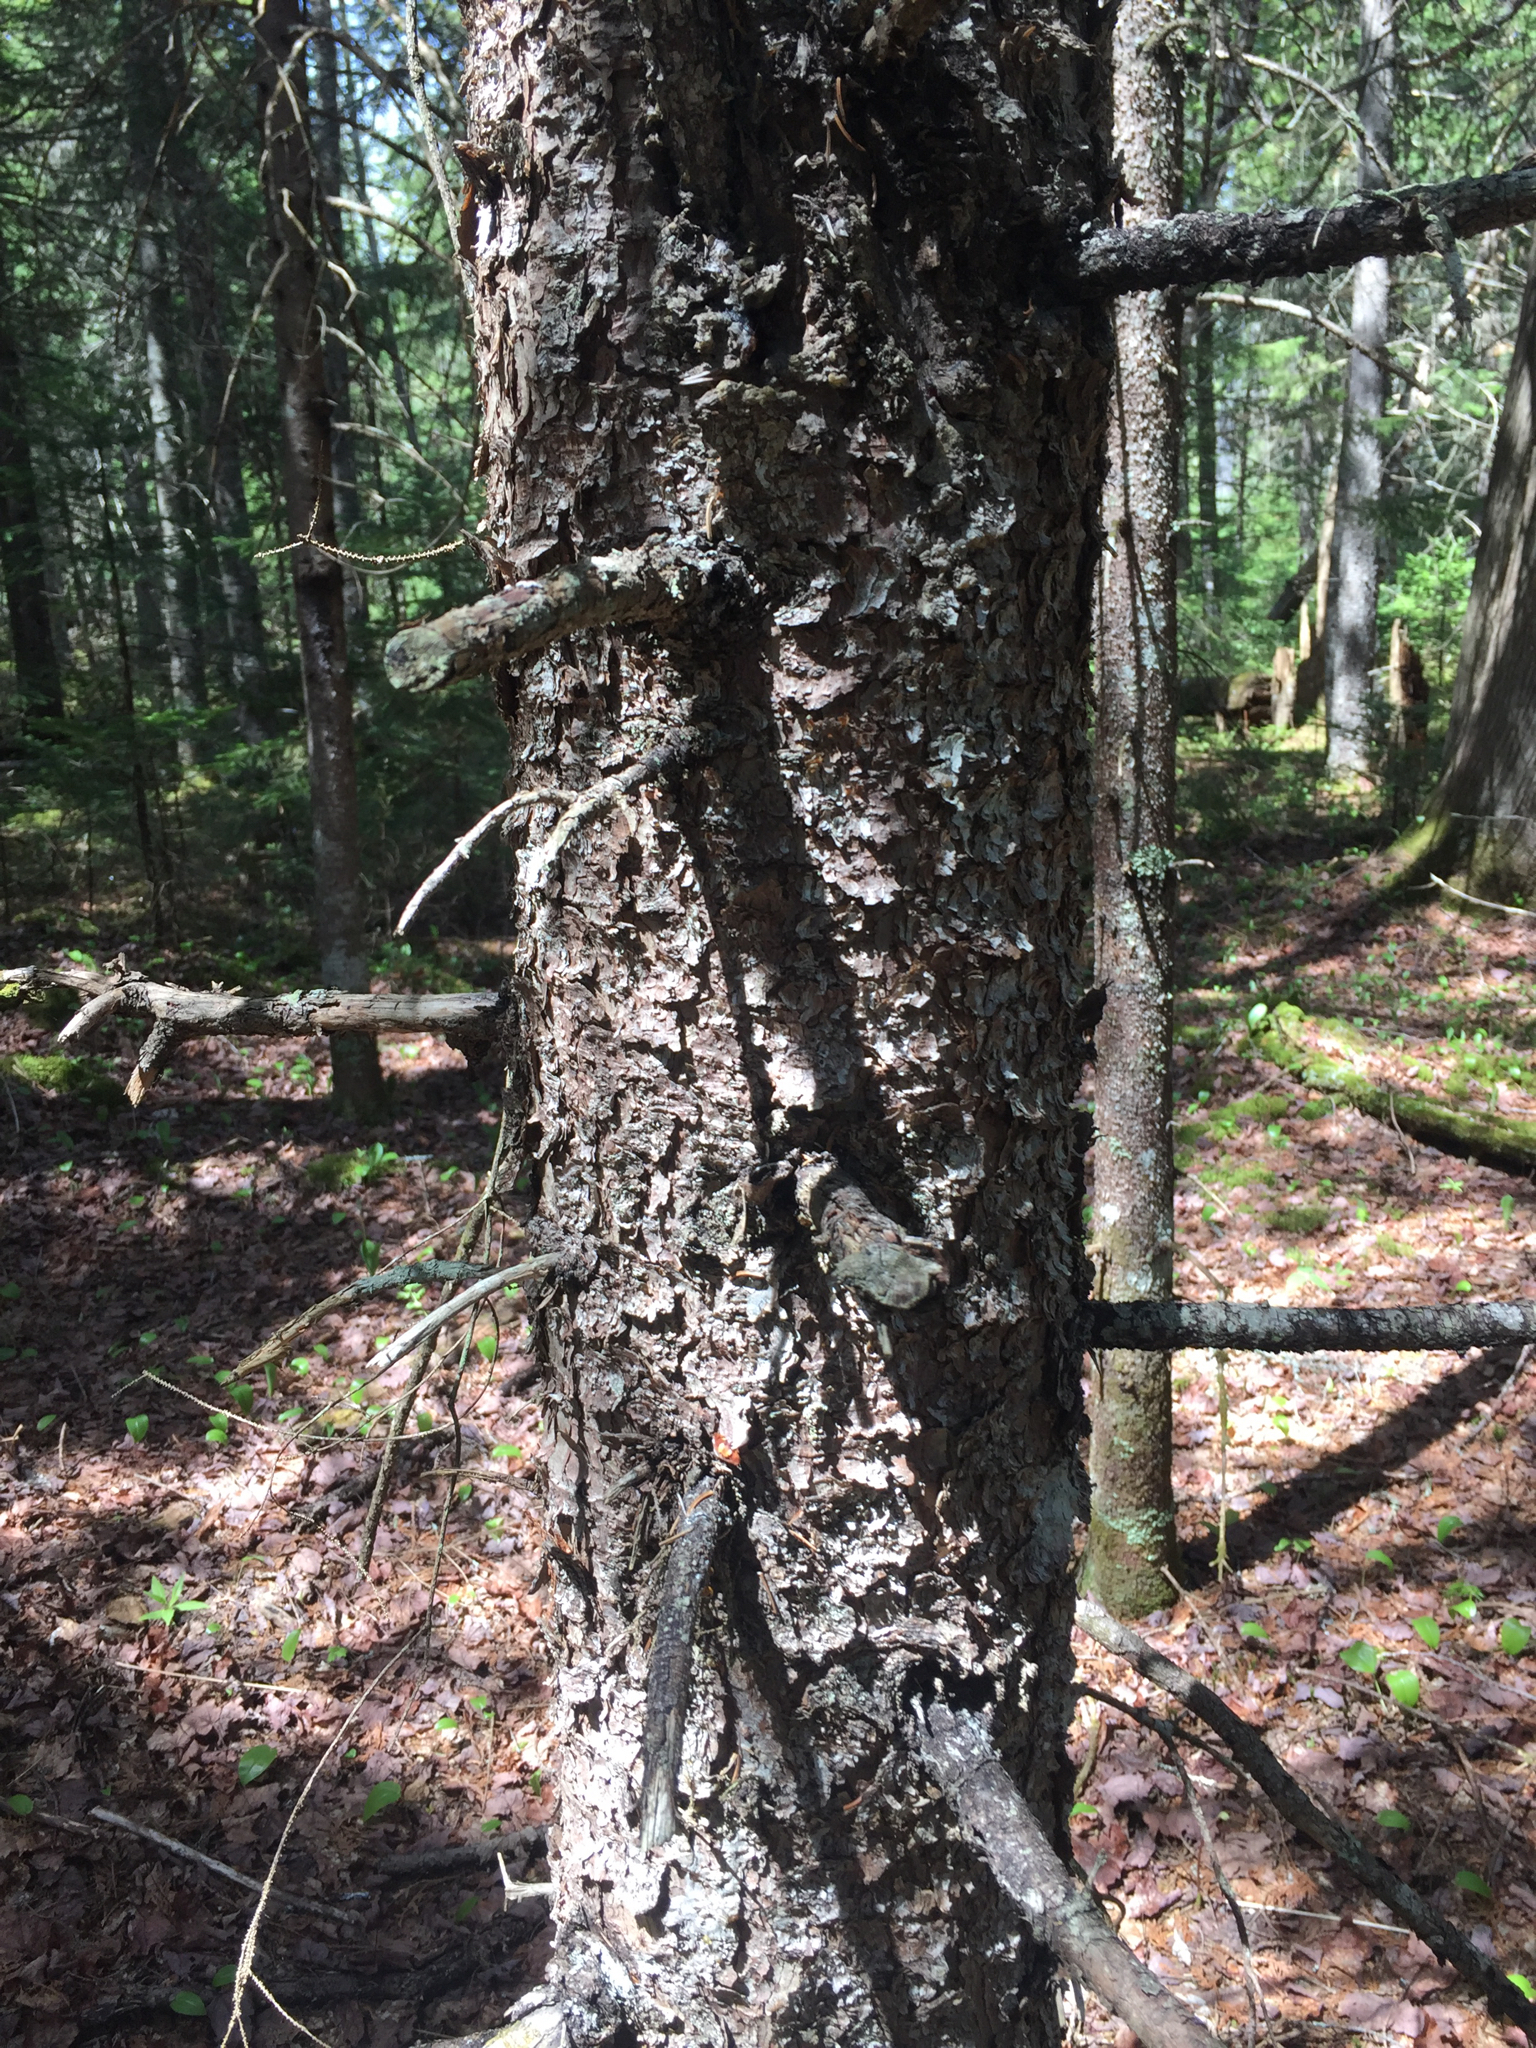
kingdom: Plantae
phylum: Tracheophyta
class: Pinopsida
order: Pinales
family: Pinaceae
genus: Picea
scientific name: Picea rubens
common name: Red spruce
